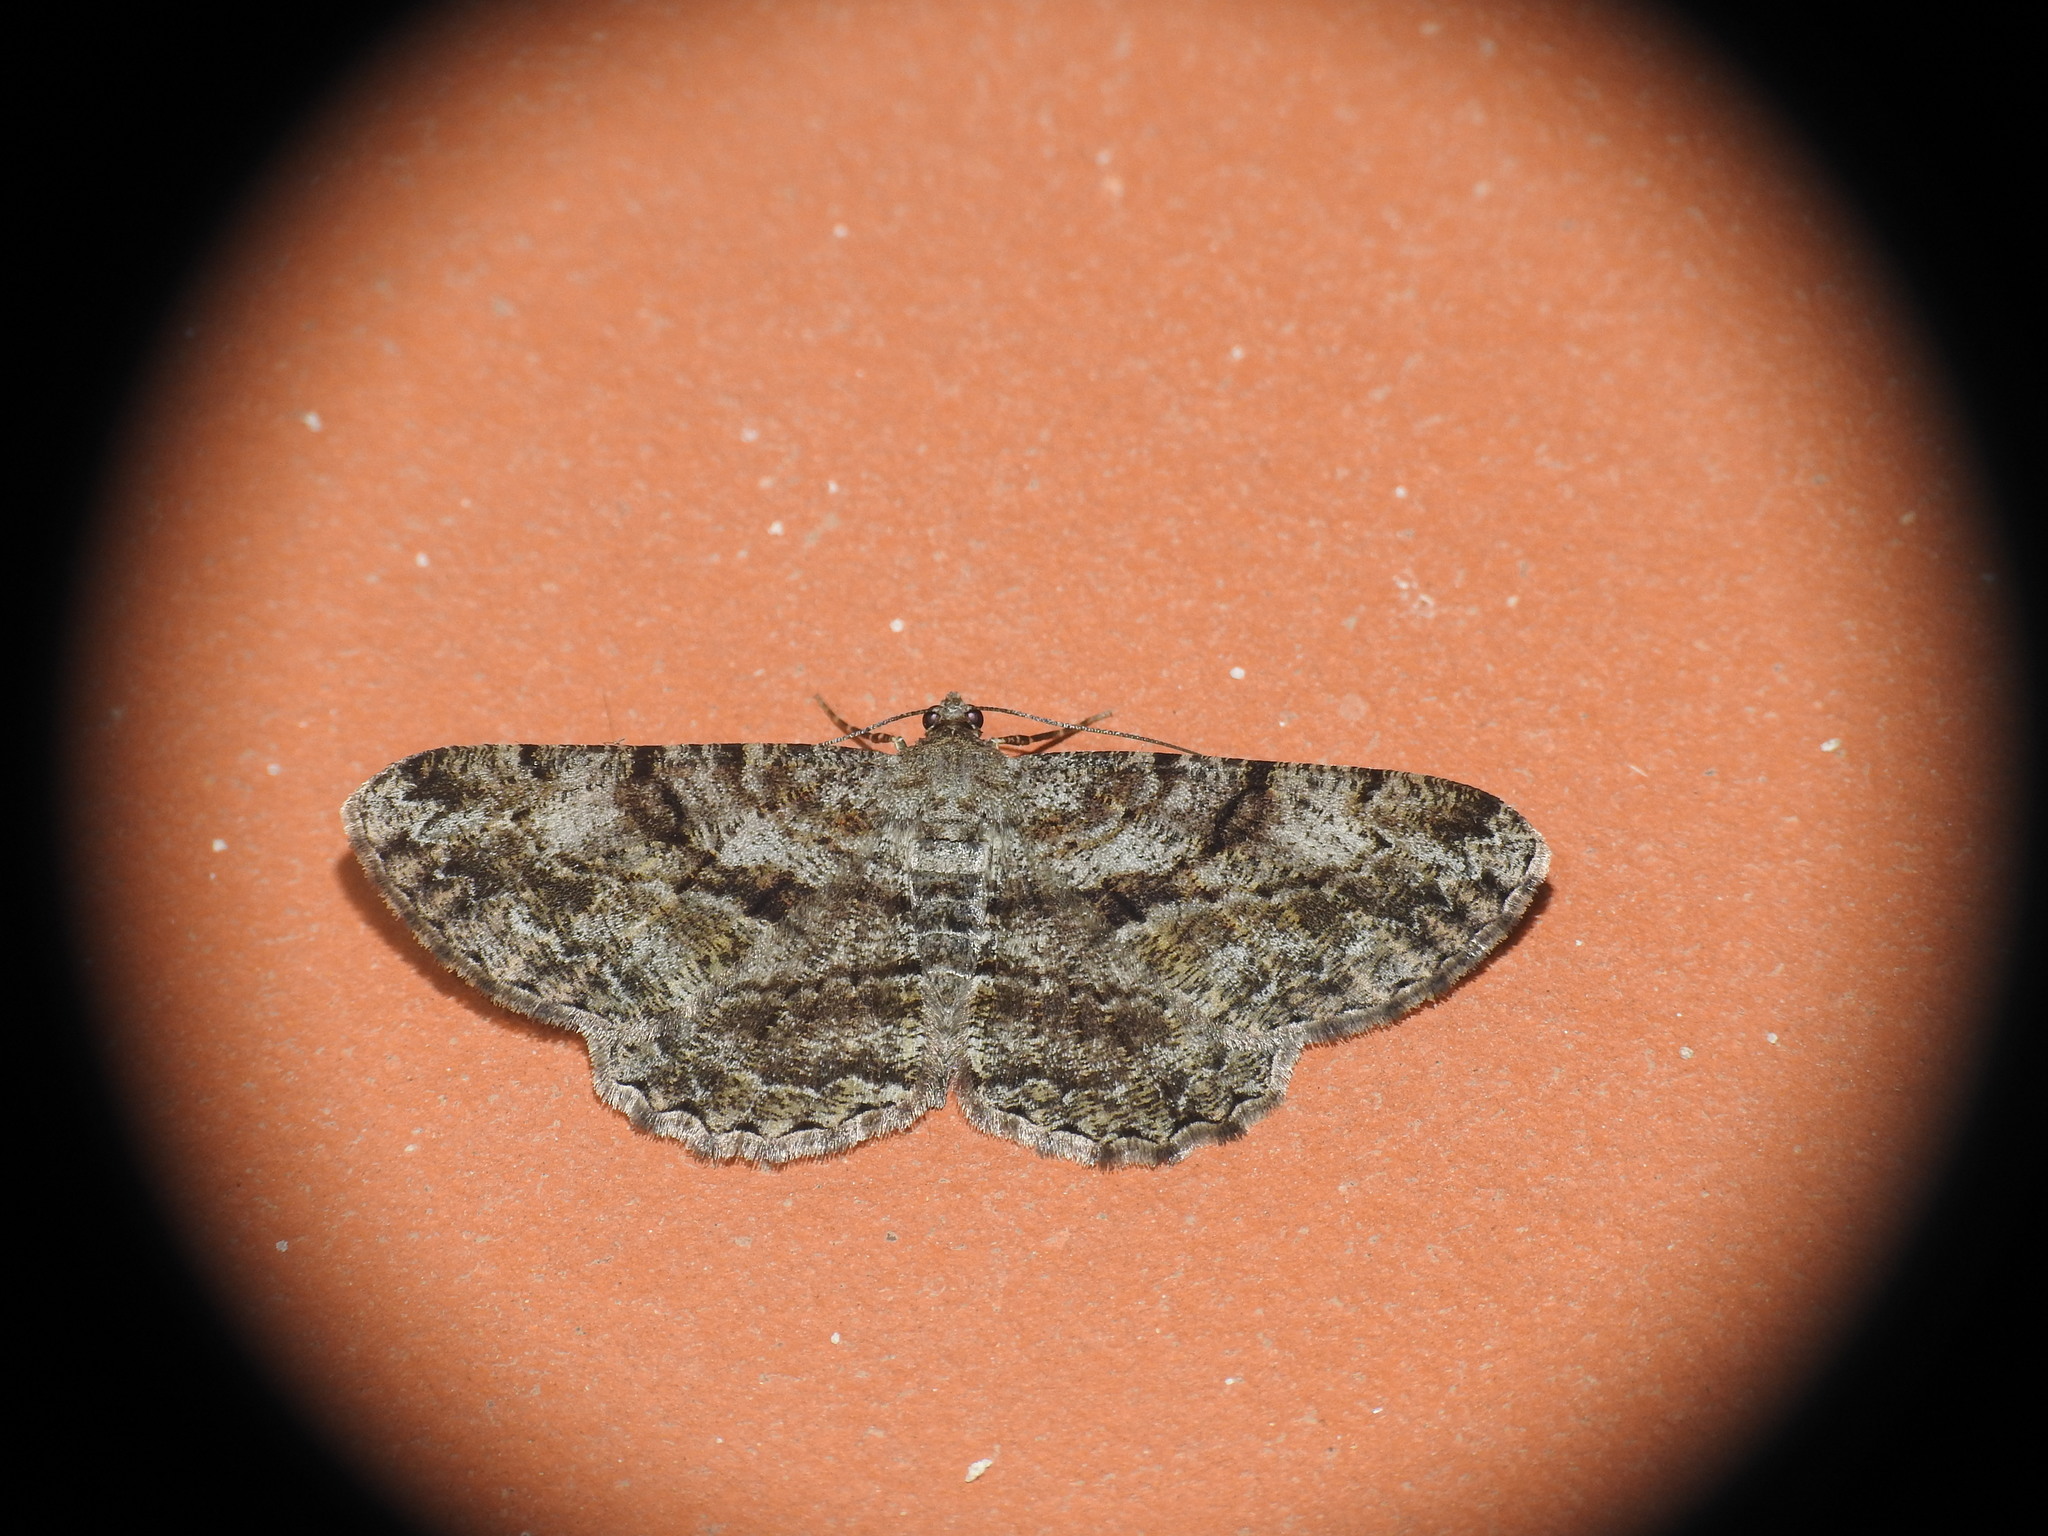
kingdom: Animalia
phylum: Arthropoda
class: Insecta
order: Lepidoptera
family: Geometridae
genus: Peribatodes
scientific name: Peribatodes rhomboidaria
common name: Willow beauty
